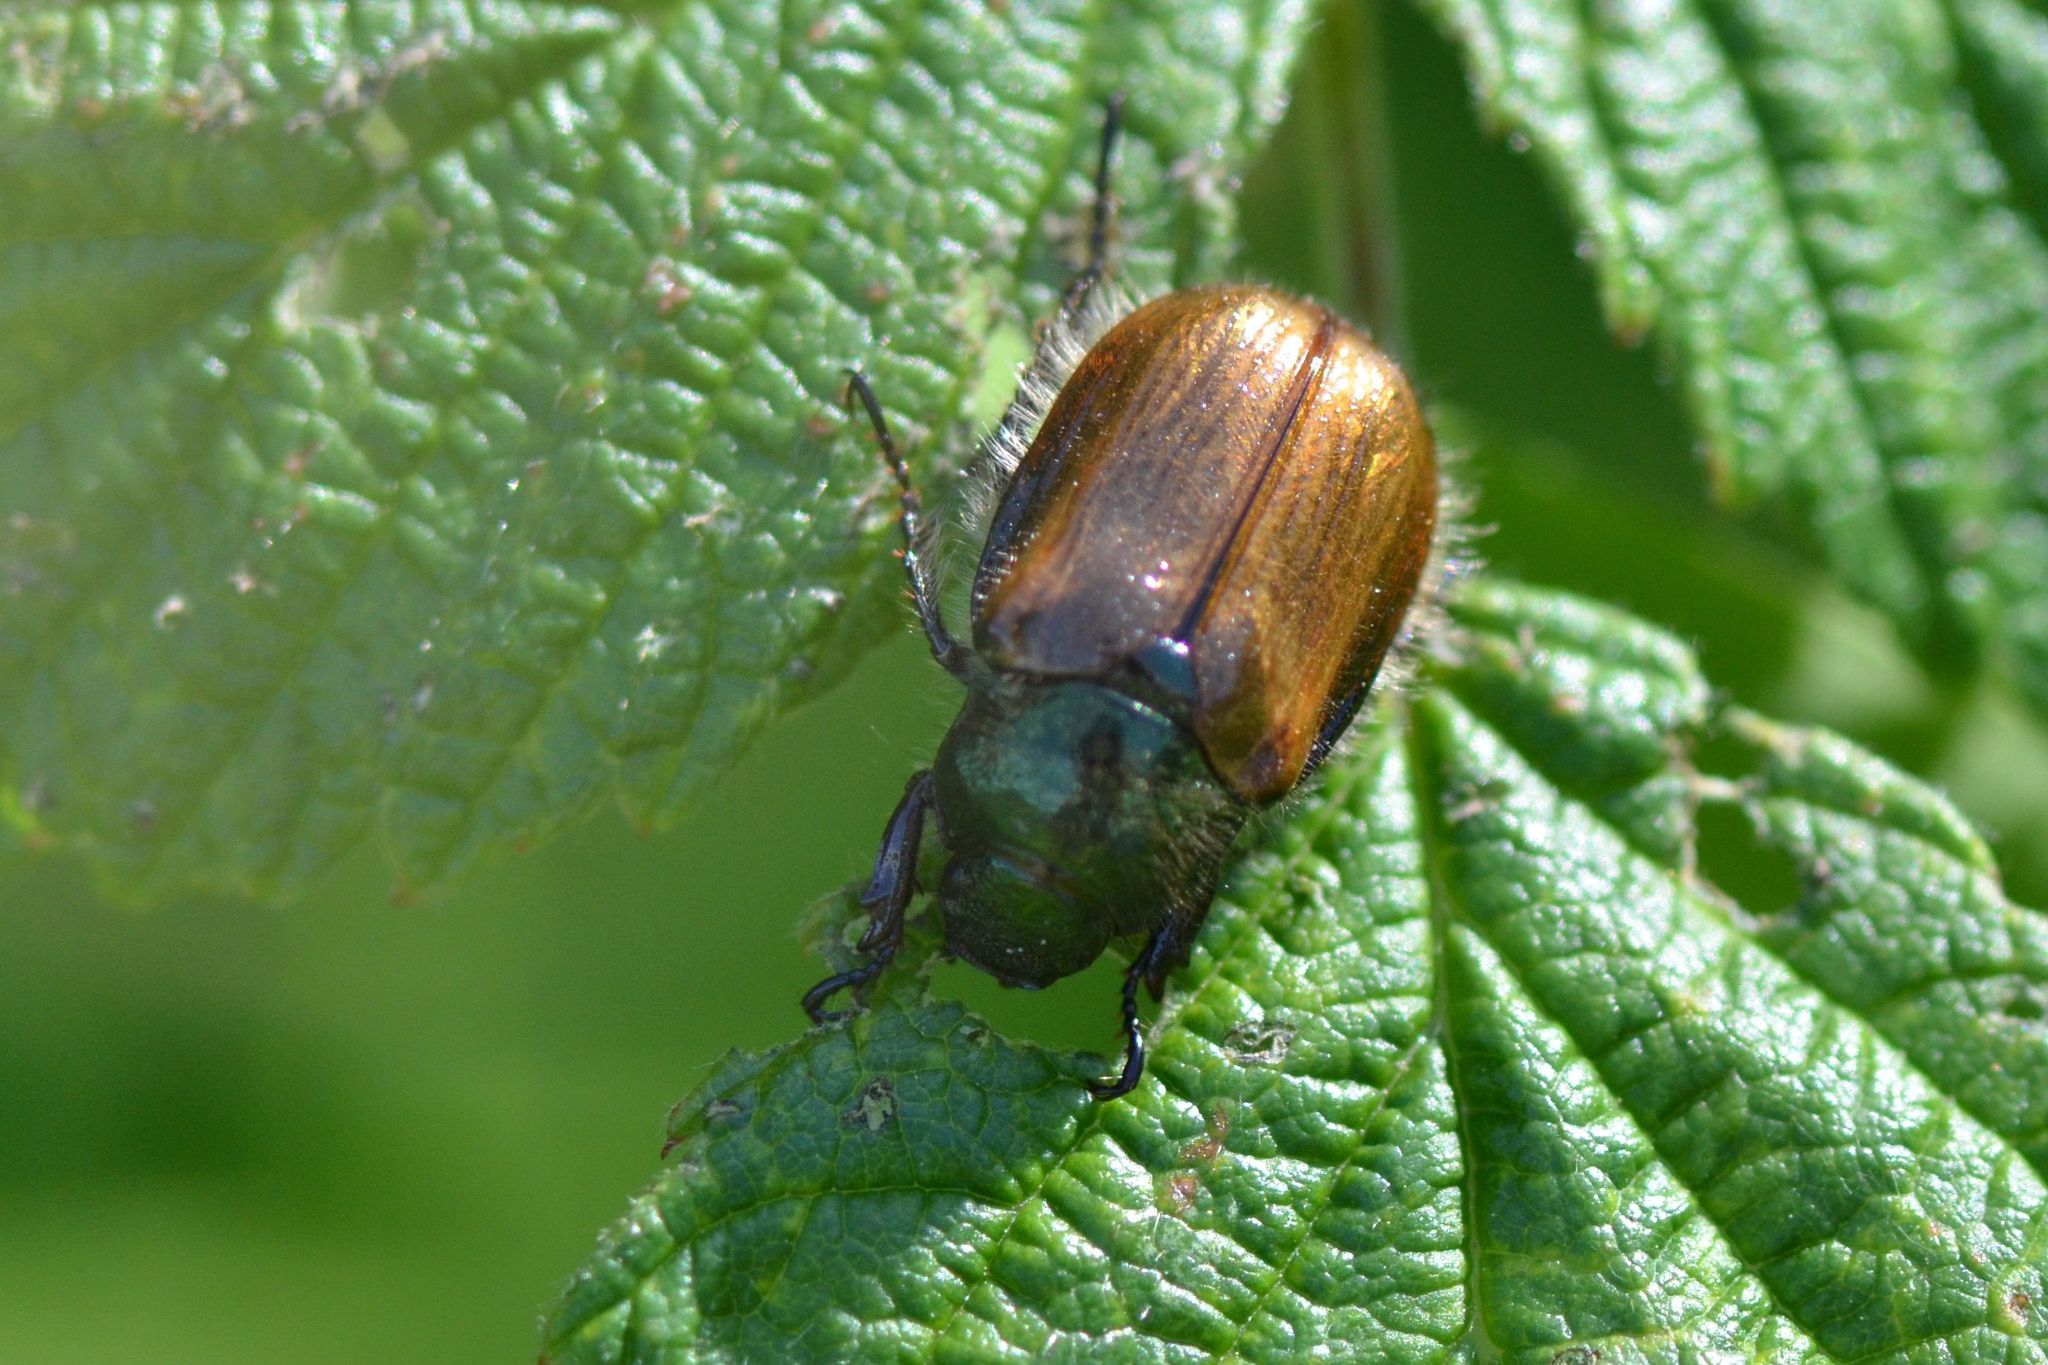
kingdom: Animalia
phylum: Arthropoda
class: Insecta
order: Coleoptera
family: Scarabaeidae
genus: Phyllopertha
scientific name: Phyllopertha horticola
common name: Garden chafer
